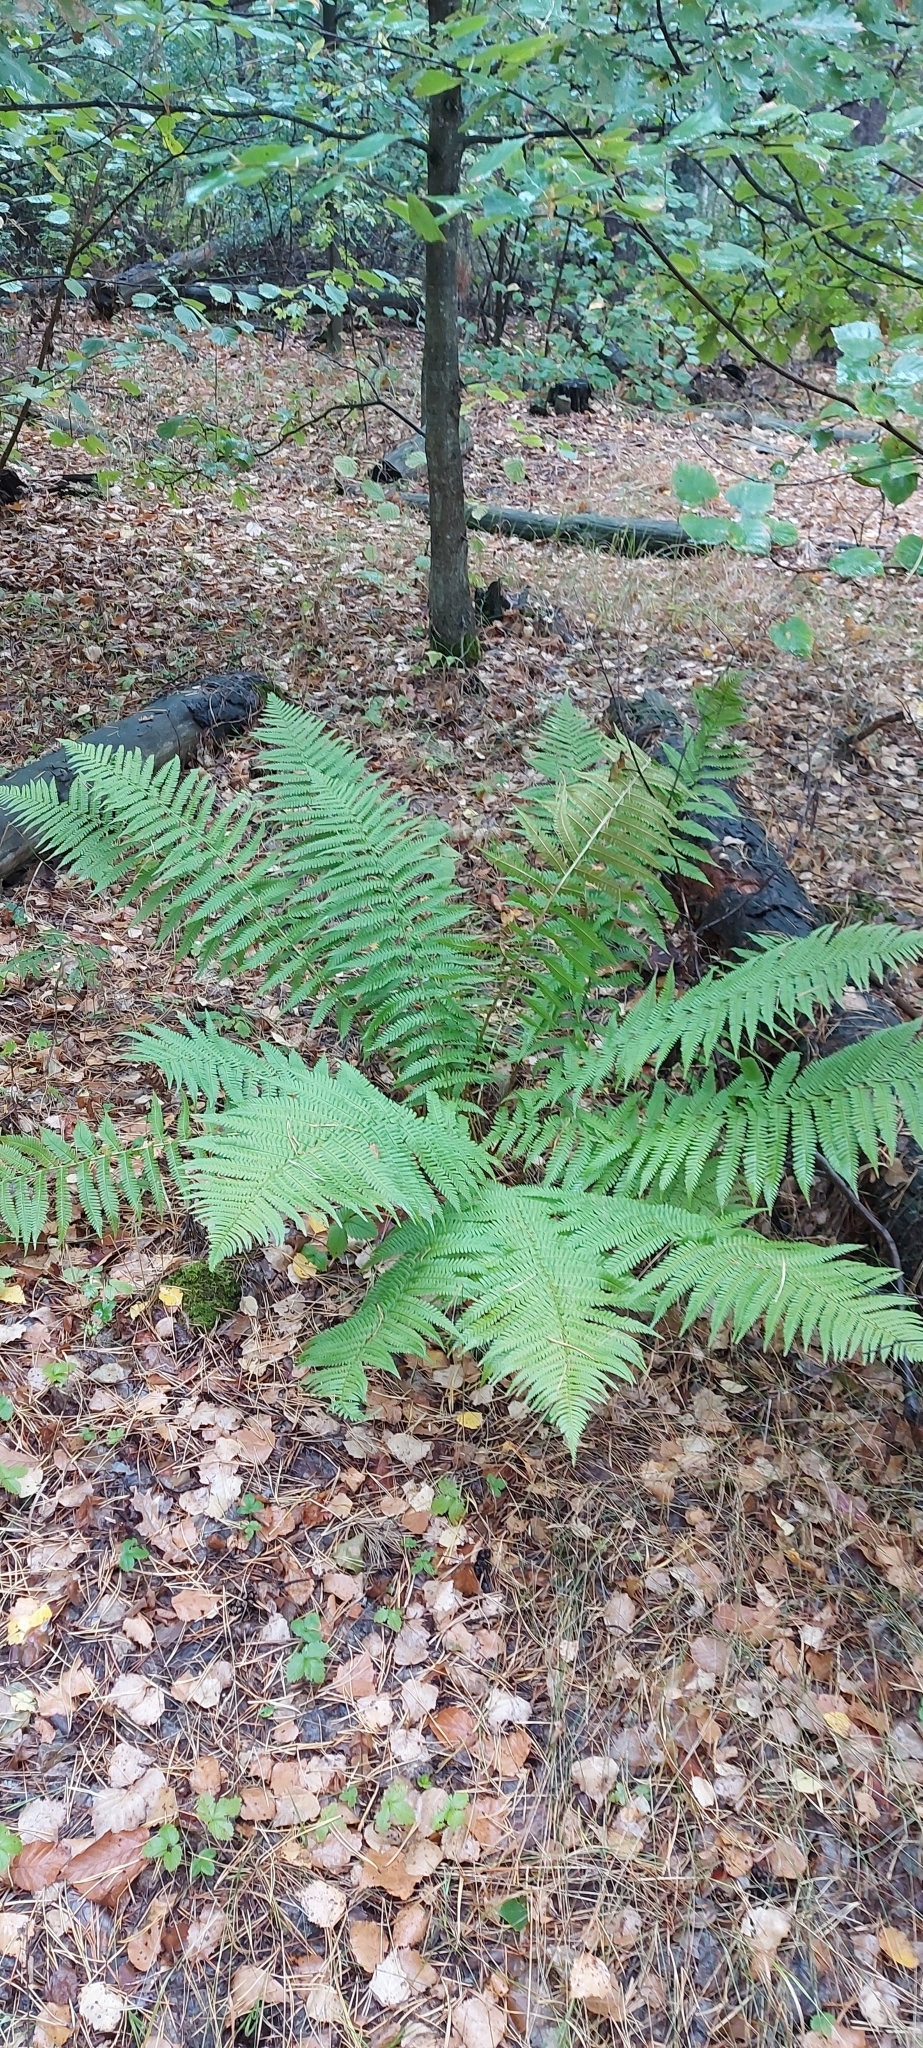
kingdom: Plantae
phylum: Tracheophyta
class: Polypodiopsida
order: Polypodiales
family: Dryopteridaceae
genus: Dryopteris
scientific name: Dryopteris filix-mas
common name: Male fern
